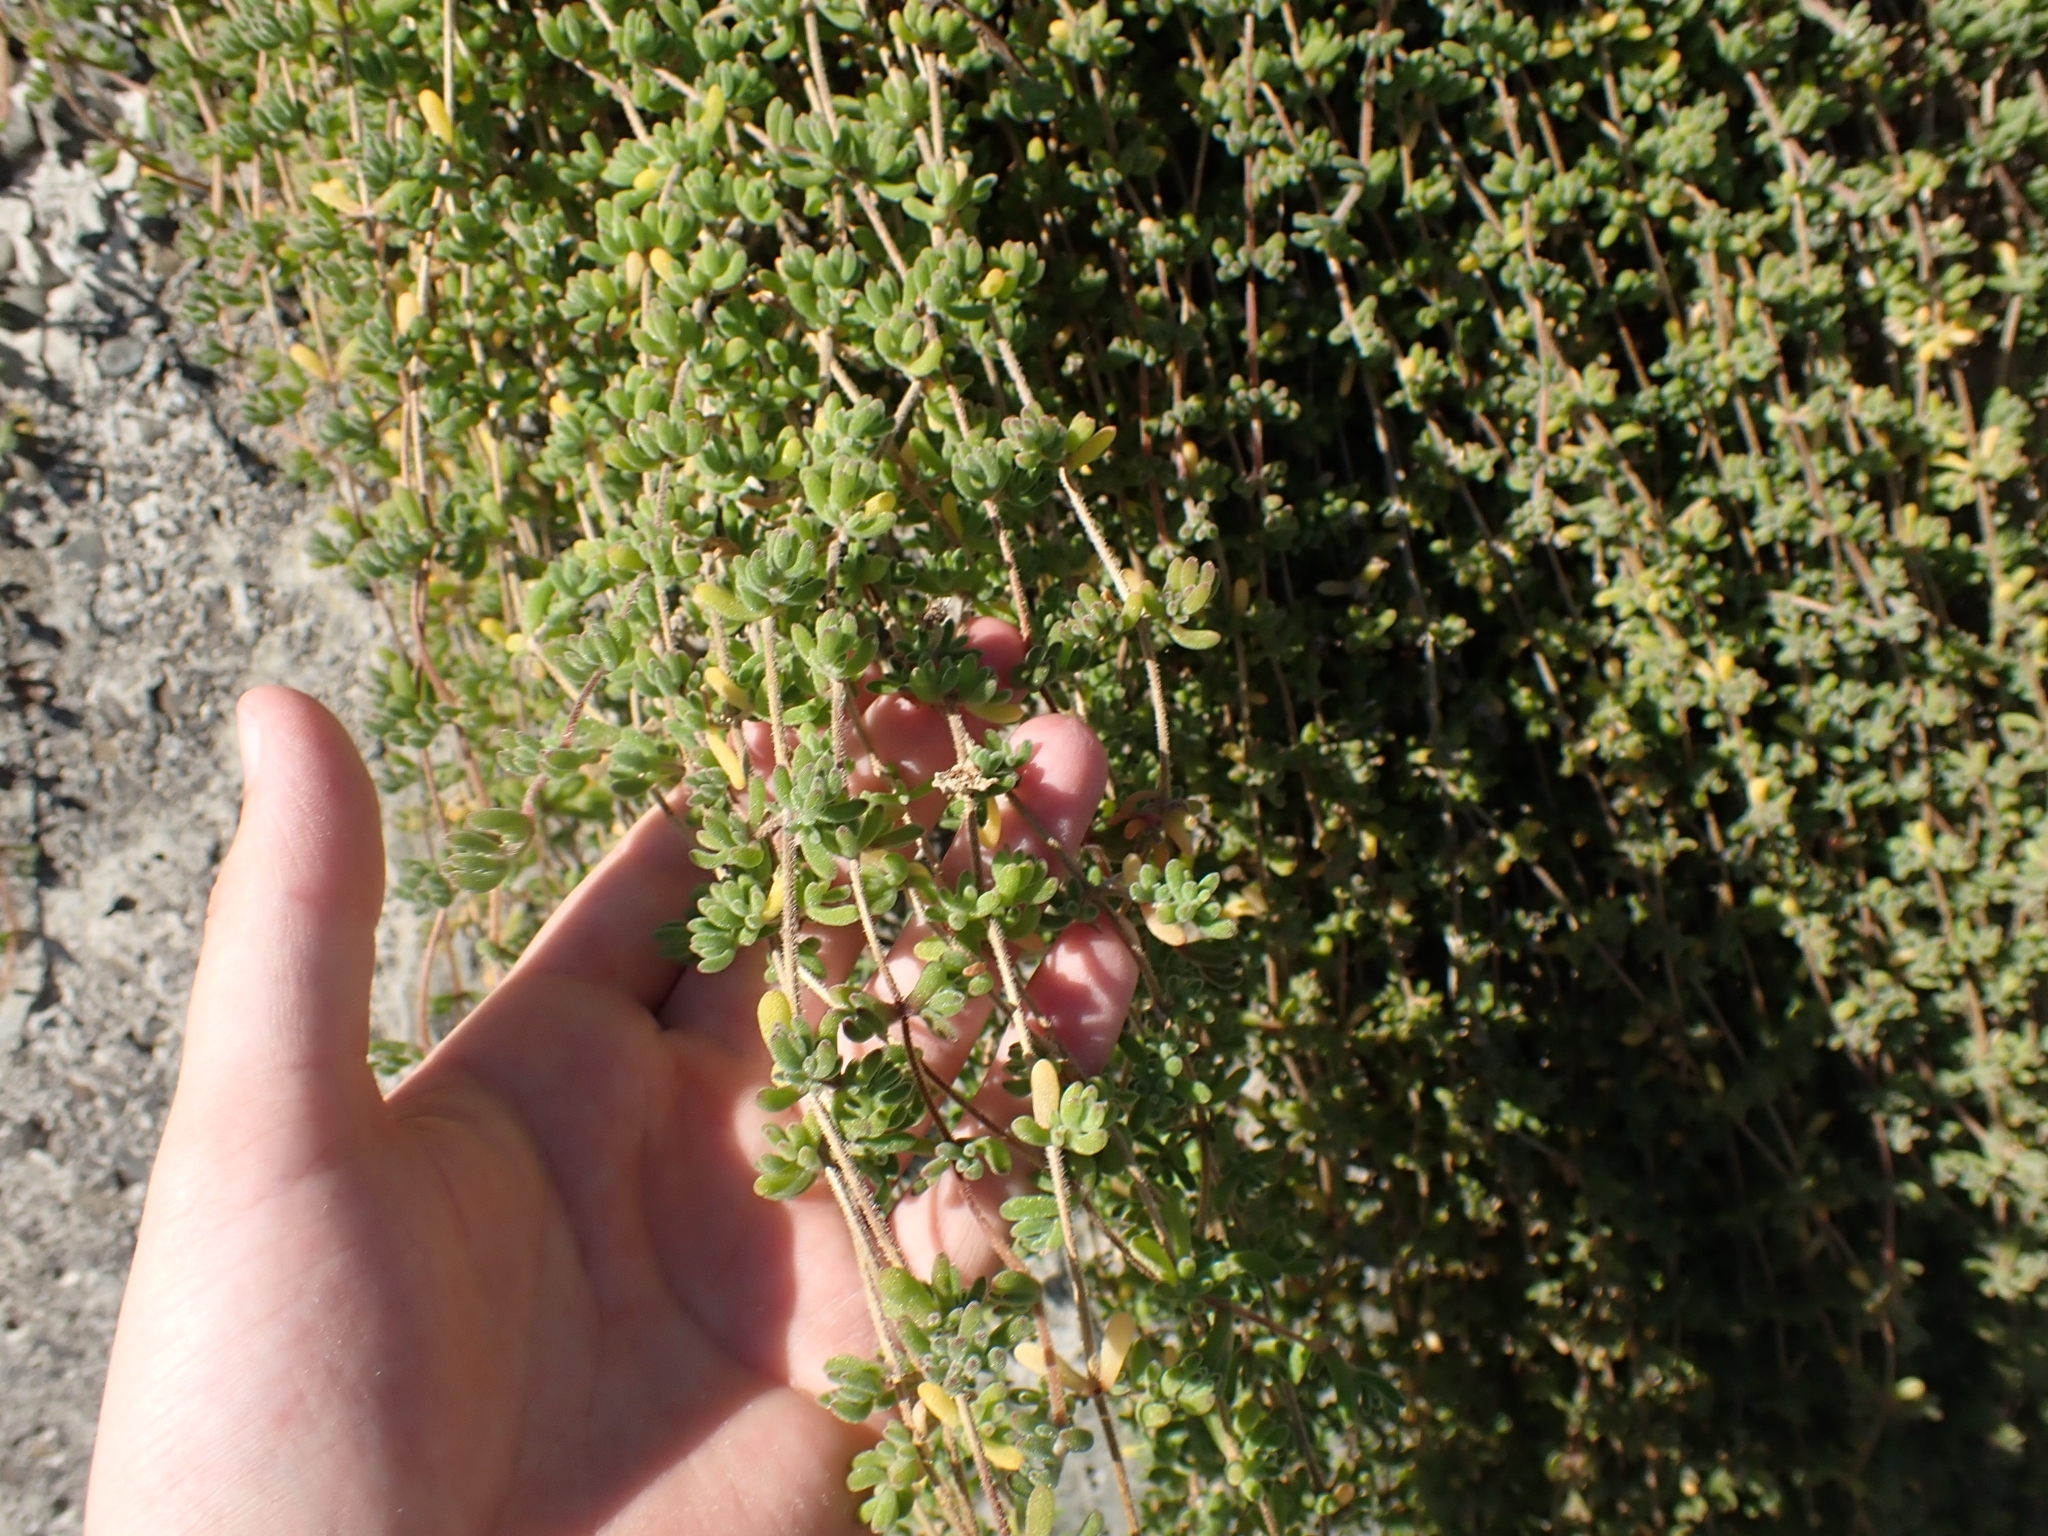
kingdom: Plantae
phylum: Tracheophyta
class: Magnoliopsida
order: Caryophyllales
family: Aizoaceae
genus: Drosanthemum
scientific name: Drosanthemum floribundum
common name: Pale dewplant
